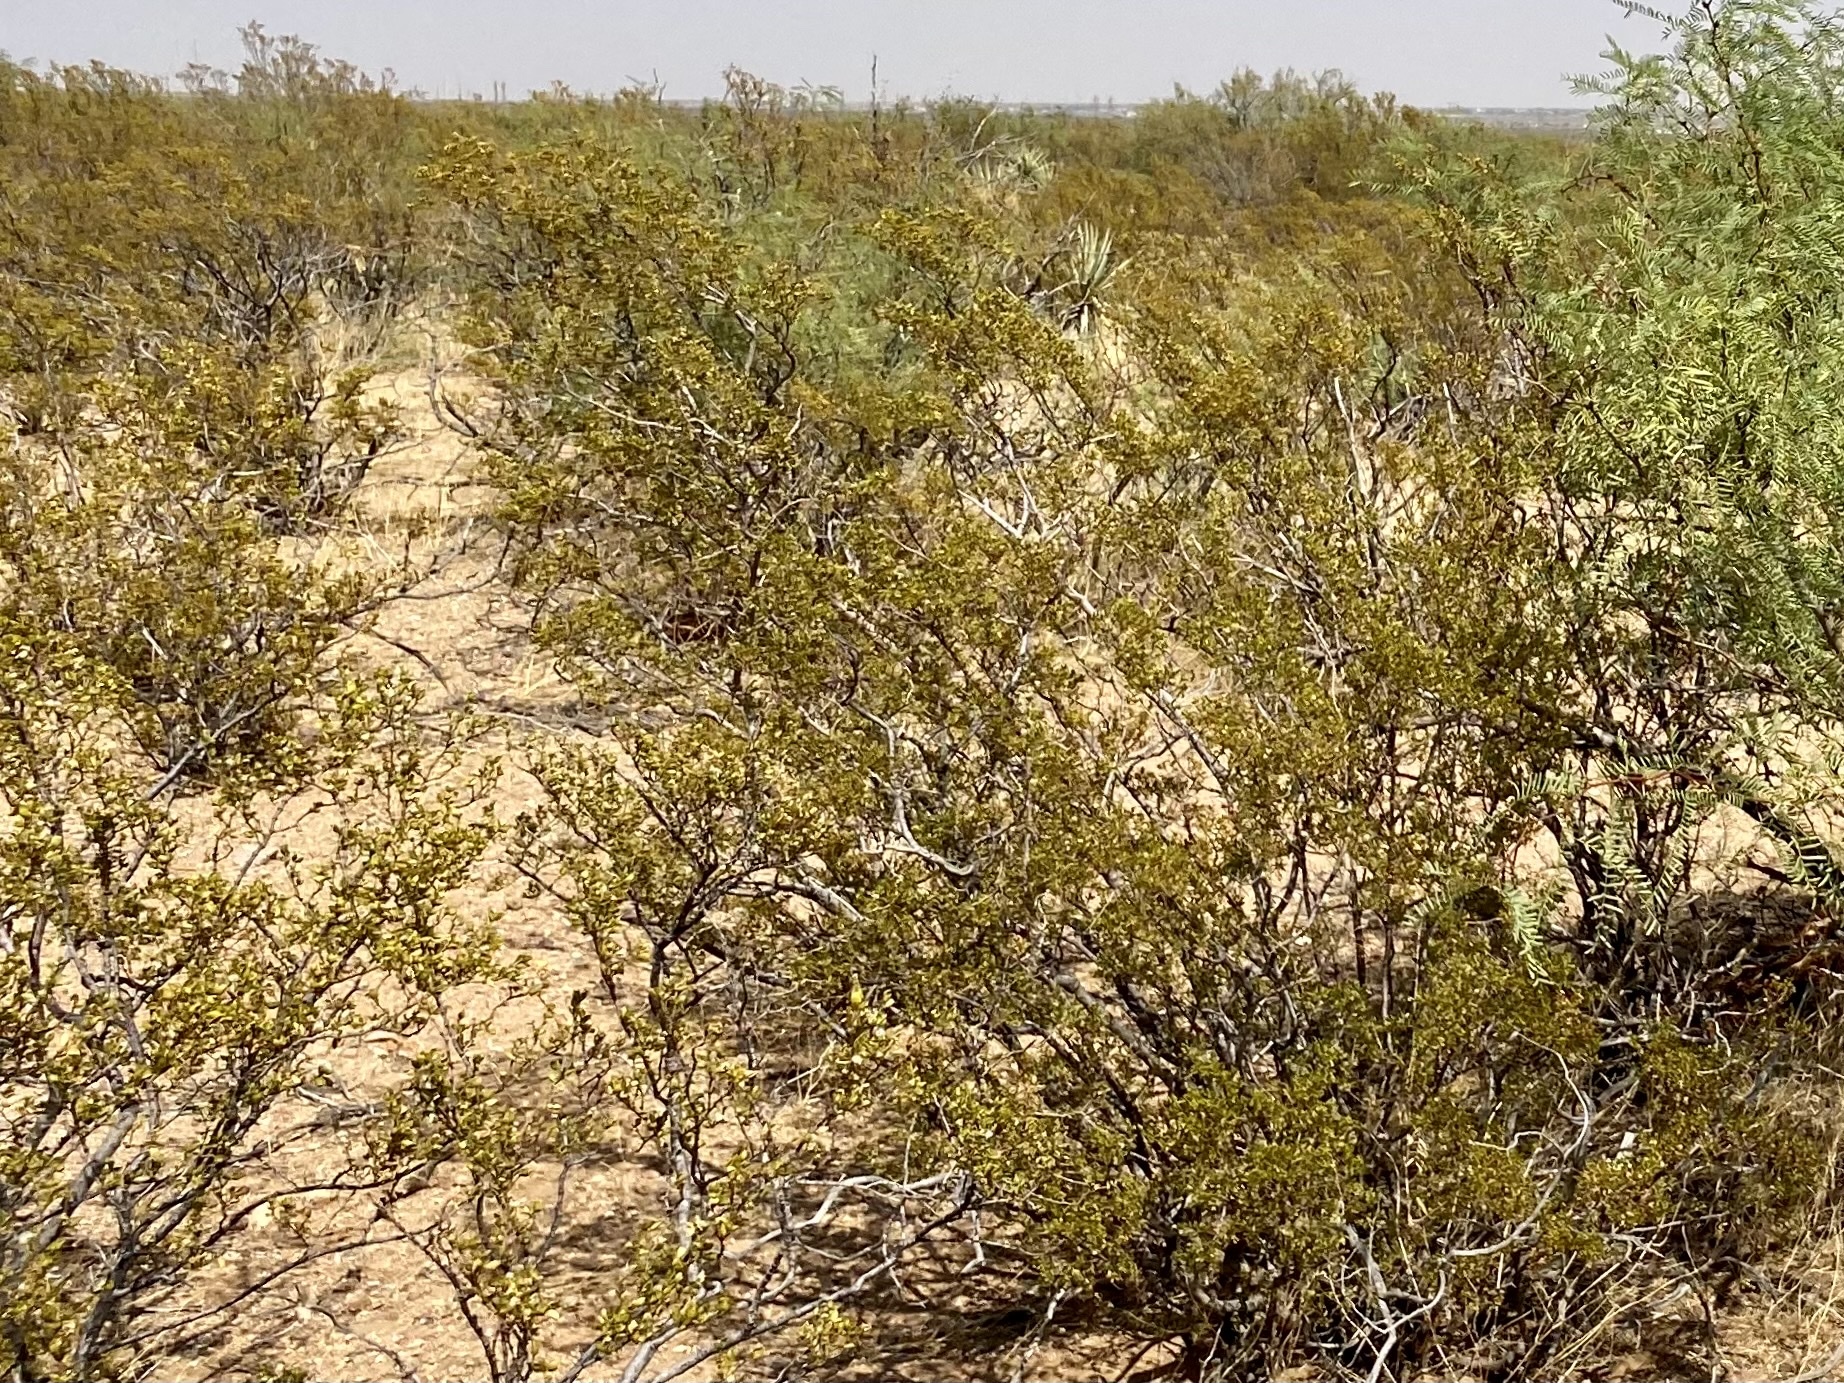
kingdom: Plantae
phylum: Tracheophyta
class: Magnoliopsida
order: Zygophyllales
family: Zygophyllaceae
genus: Larrea
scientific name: Larrea tridentata
